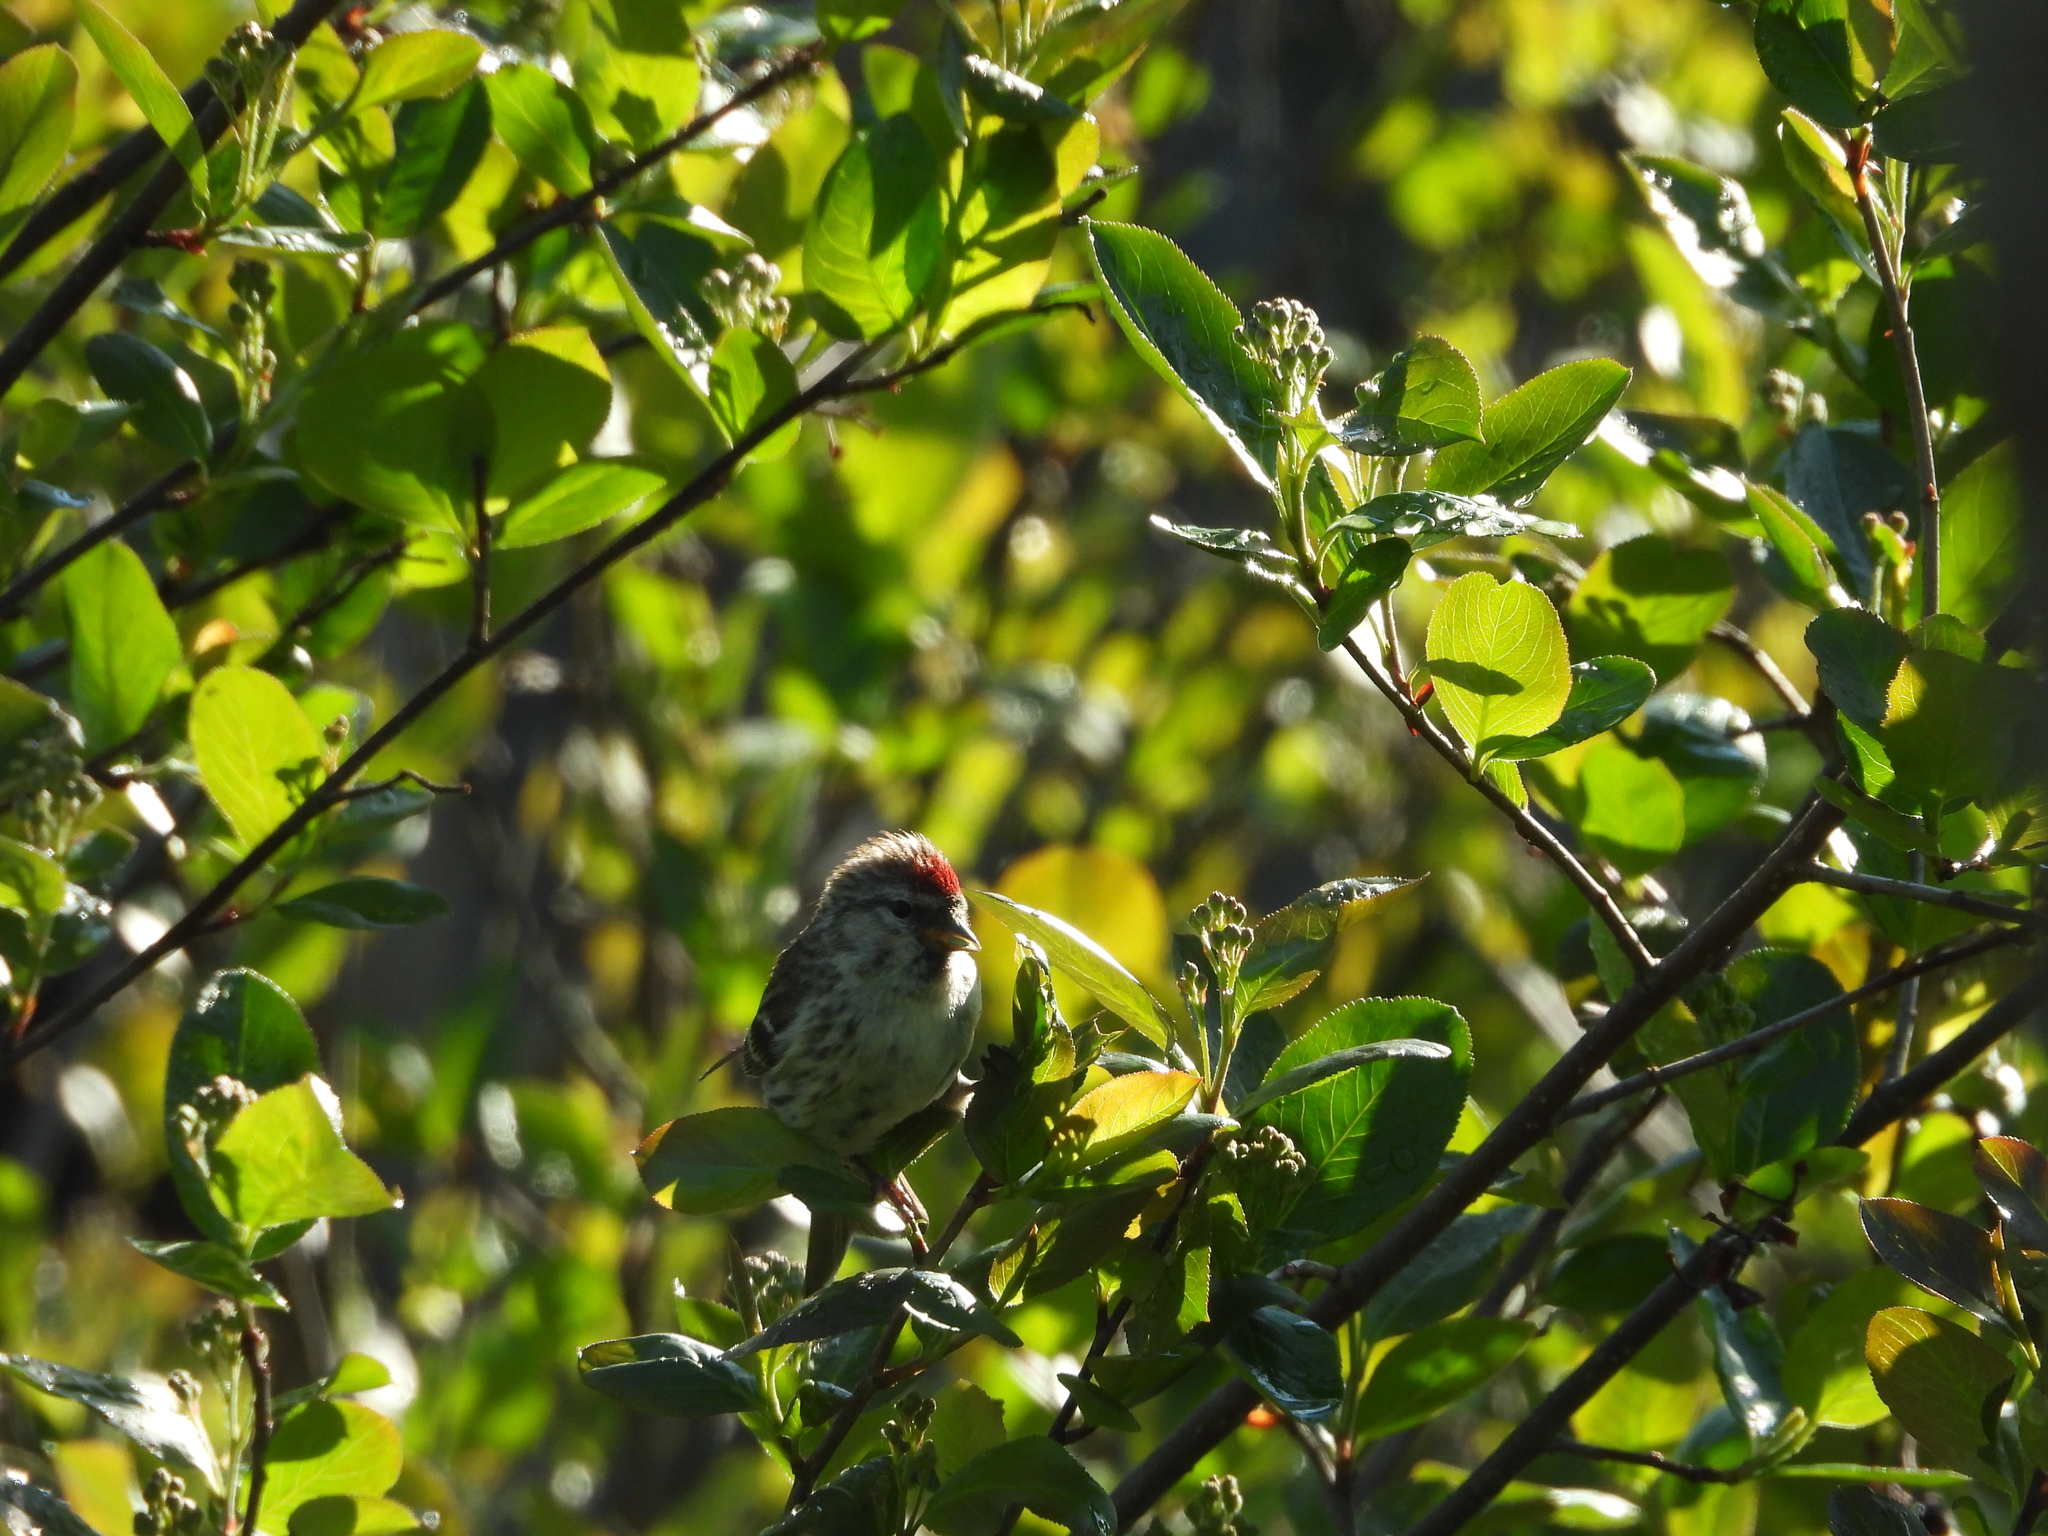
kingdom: Animalia
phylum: Chordata
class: Aves
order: Passeriformes
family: Fringillidae
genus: Acanthis
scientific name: Acanthis flammea
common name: Common redpoll
